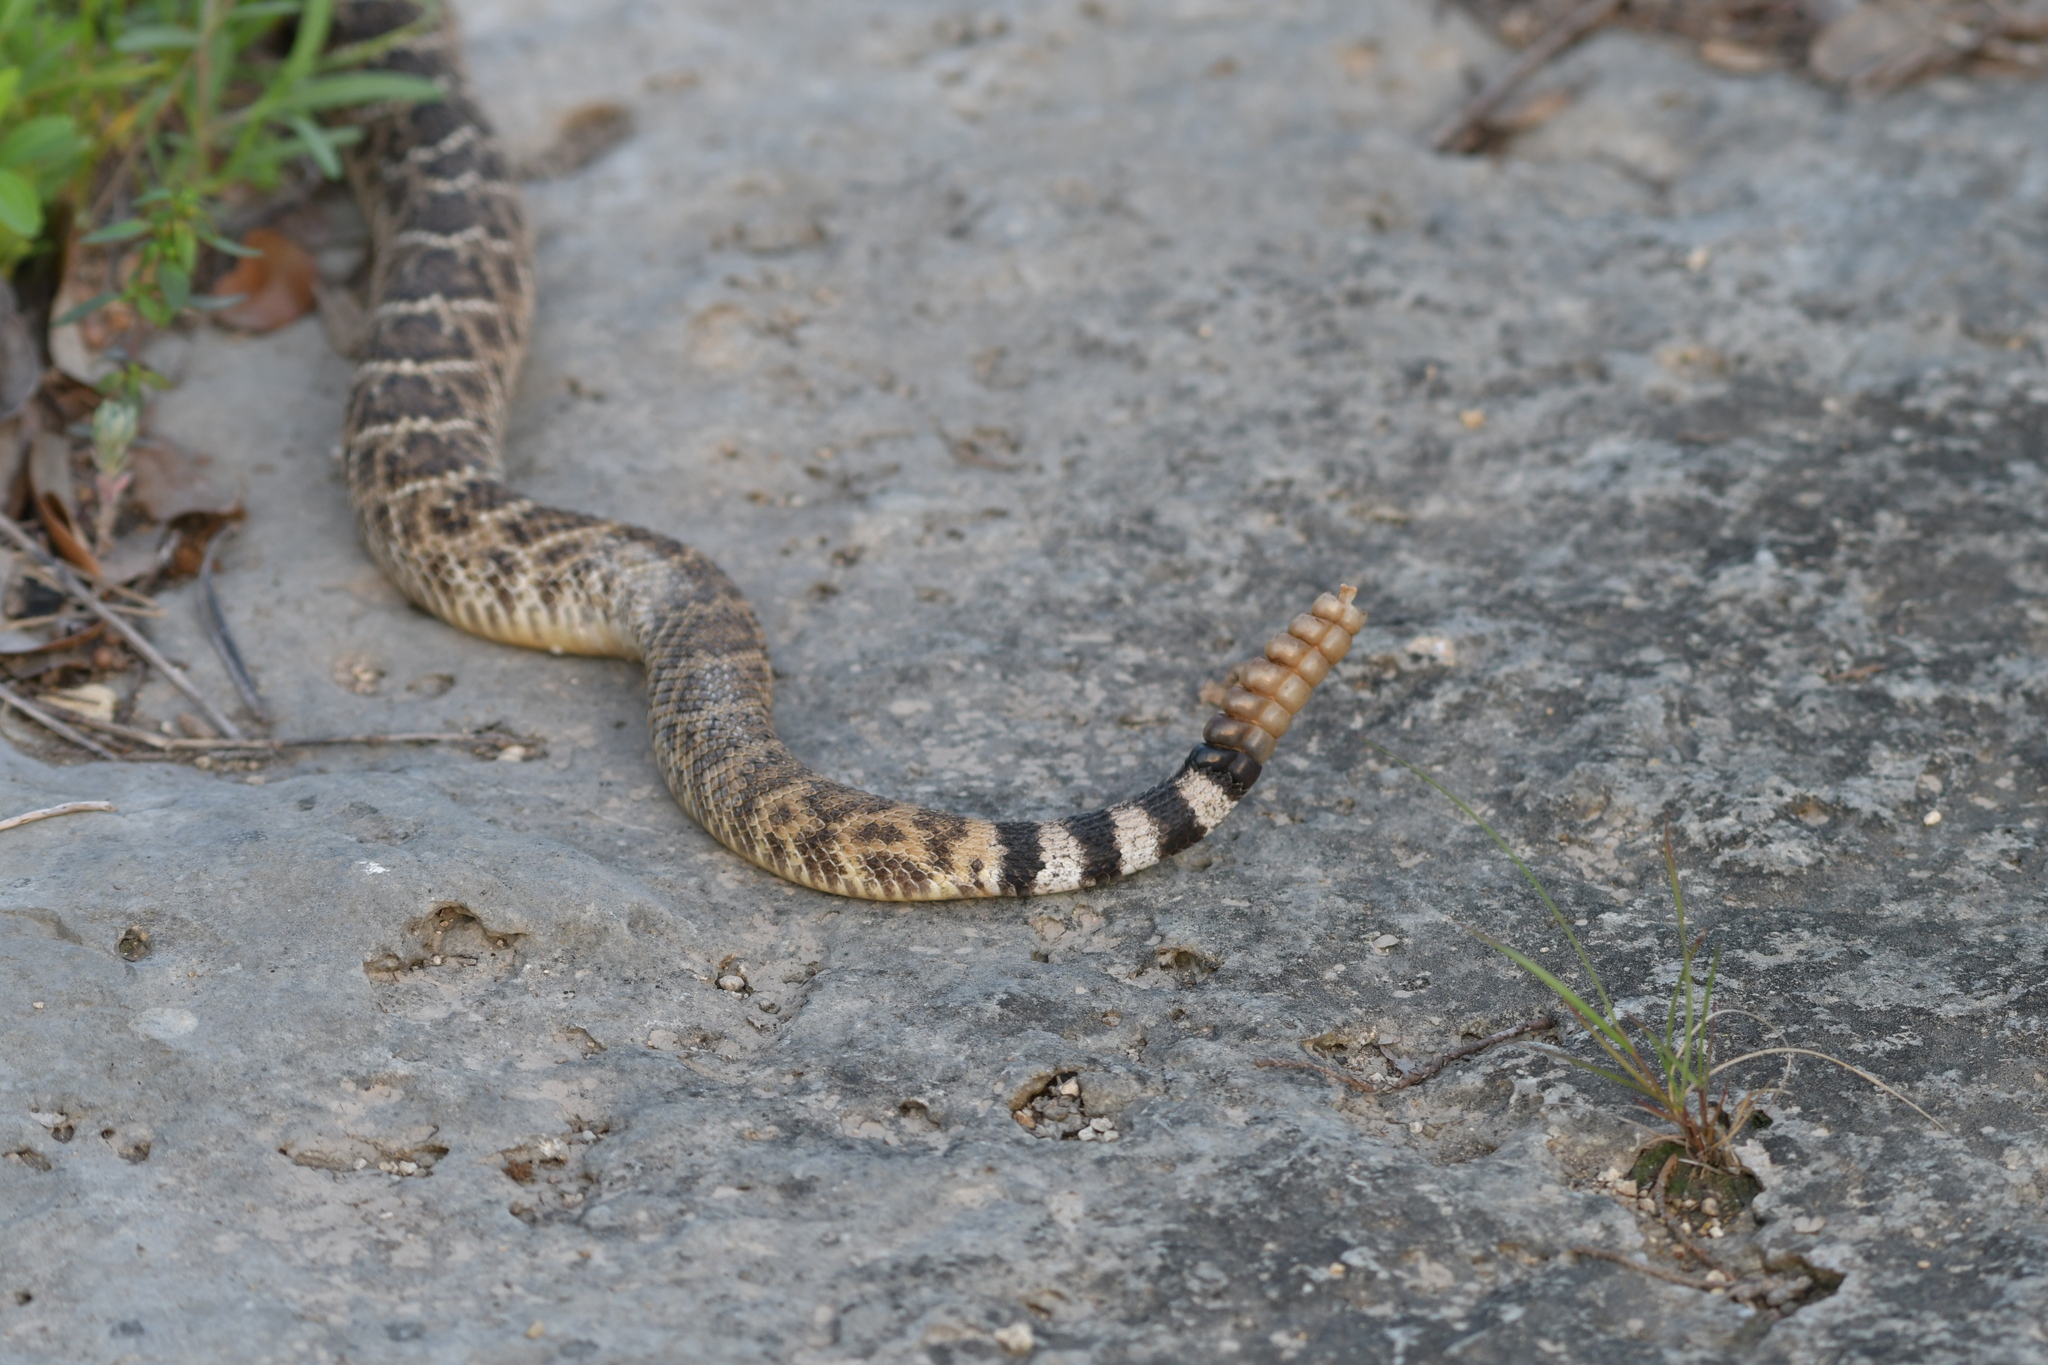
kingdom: Animalia
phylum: Chordata
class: Squamata
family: Viperidae
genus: Crotalus
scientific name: Crotalus atrox
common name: Western diamond-backed rattlesnake
